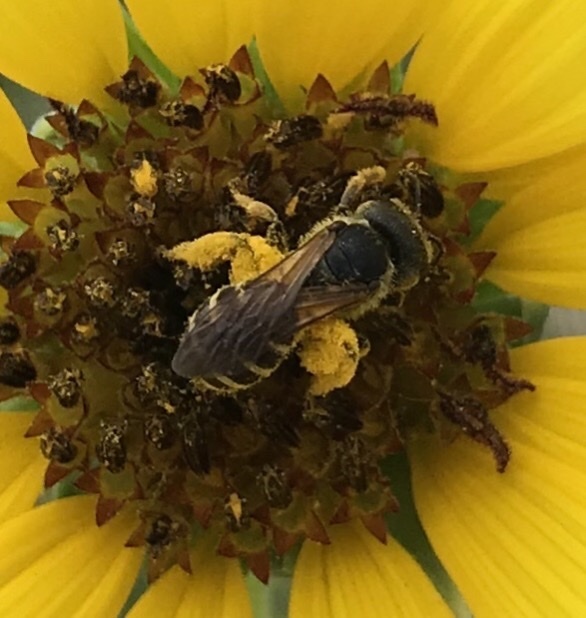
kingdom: Animalia
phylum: Arthropoda
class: Insecta
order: Hymenoptera
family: Halictidae
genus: Halictus
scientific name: Halictus ligatus
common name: Ligated furrow bee
